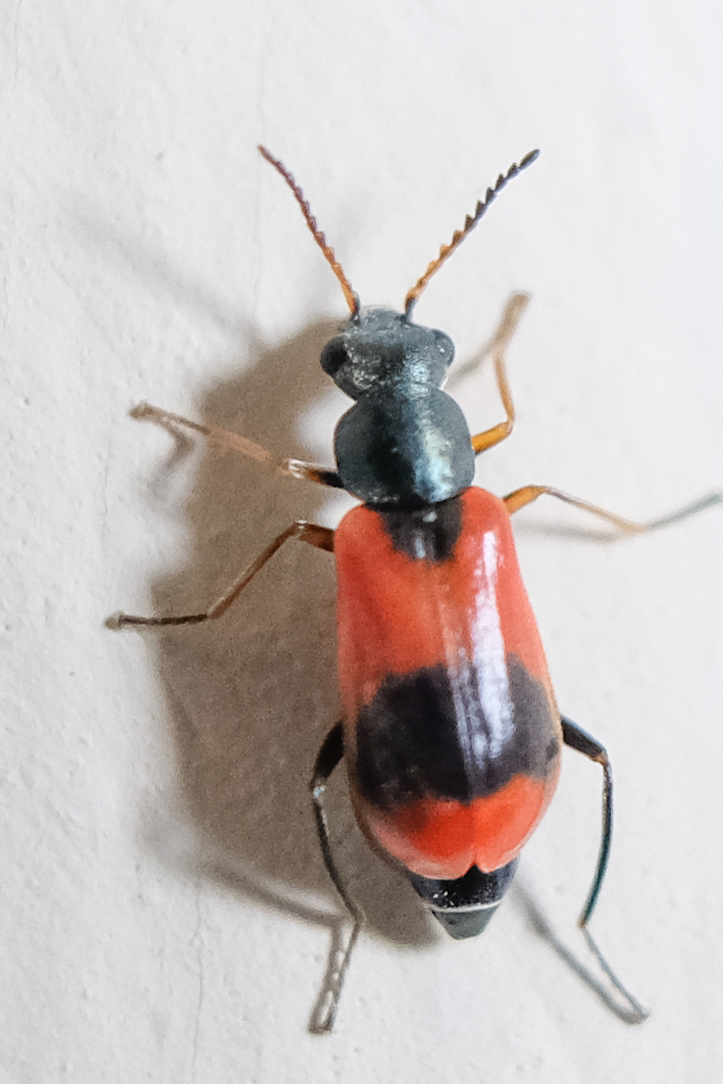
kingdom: Animalia
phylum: Arthropoda
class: Insecta
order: Coleoptera
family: Melyridae
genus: Anthocomus
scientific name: Anthocomus equestris
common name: Black-banded soft-winged flower beetle
